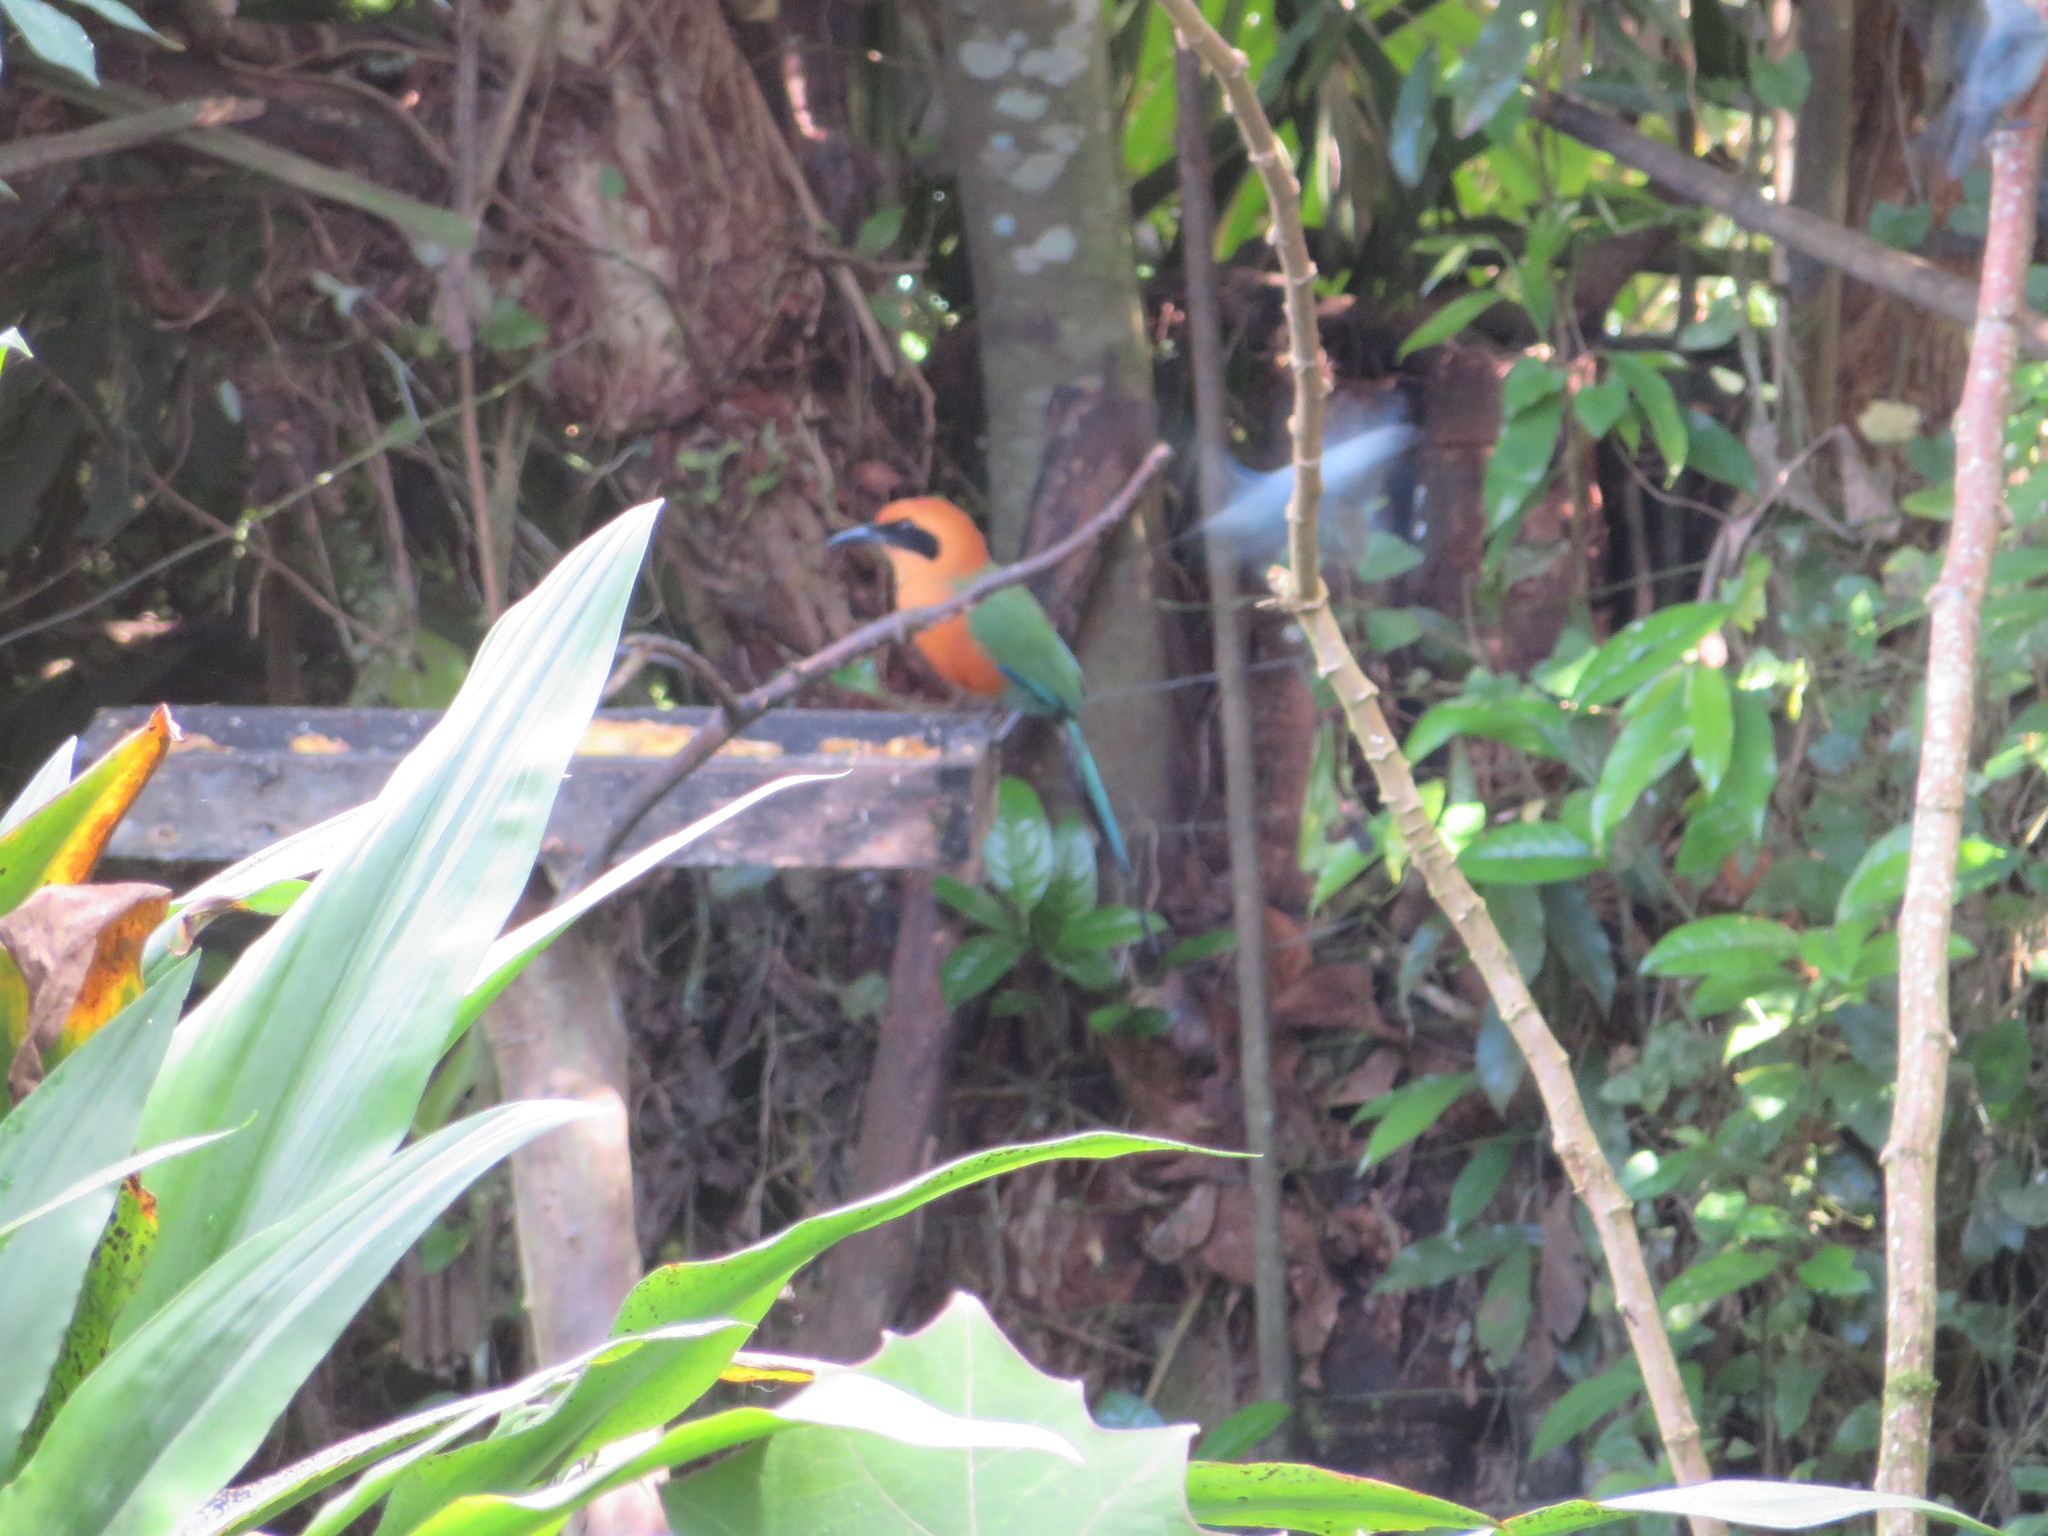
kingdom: Animalia
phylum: Chordata
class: Aves
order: Coraciiformes
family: Momotidae
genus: Baryphthengus
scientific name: Baryphthengus martii
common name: Rufous motmot
